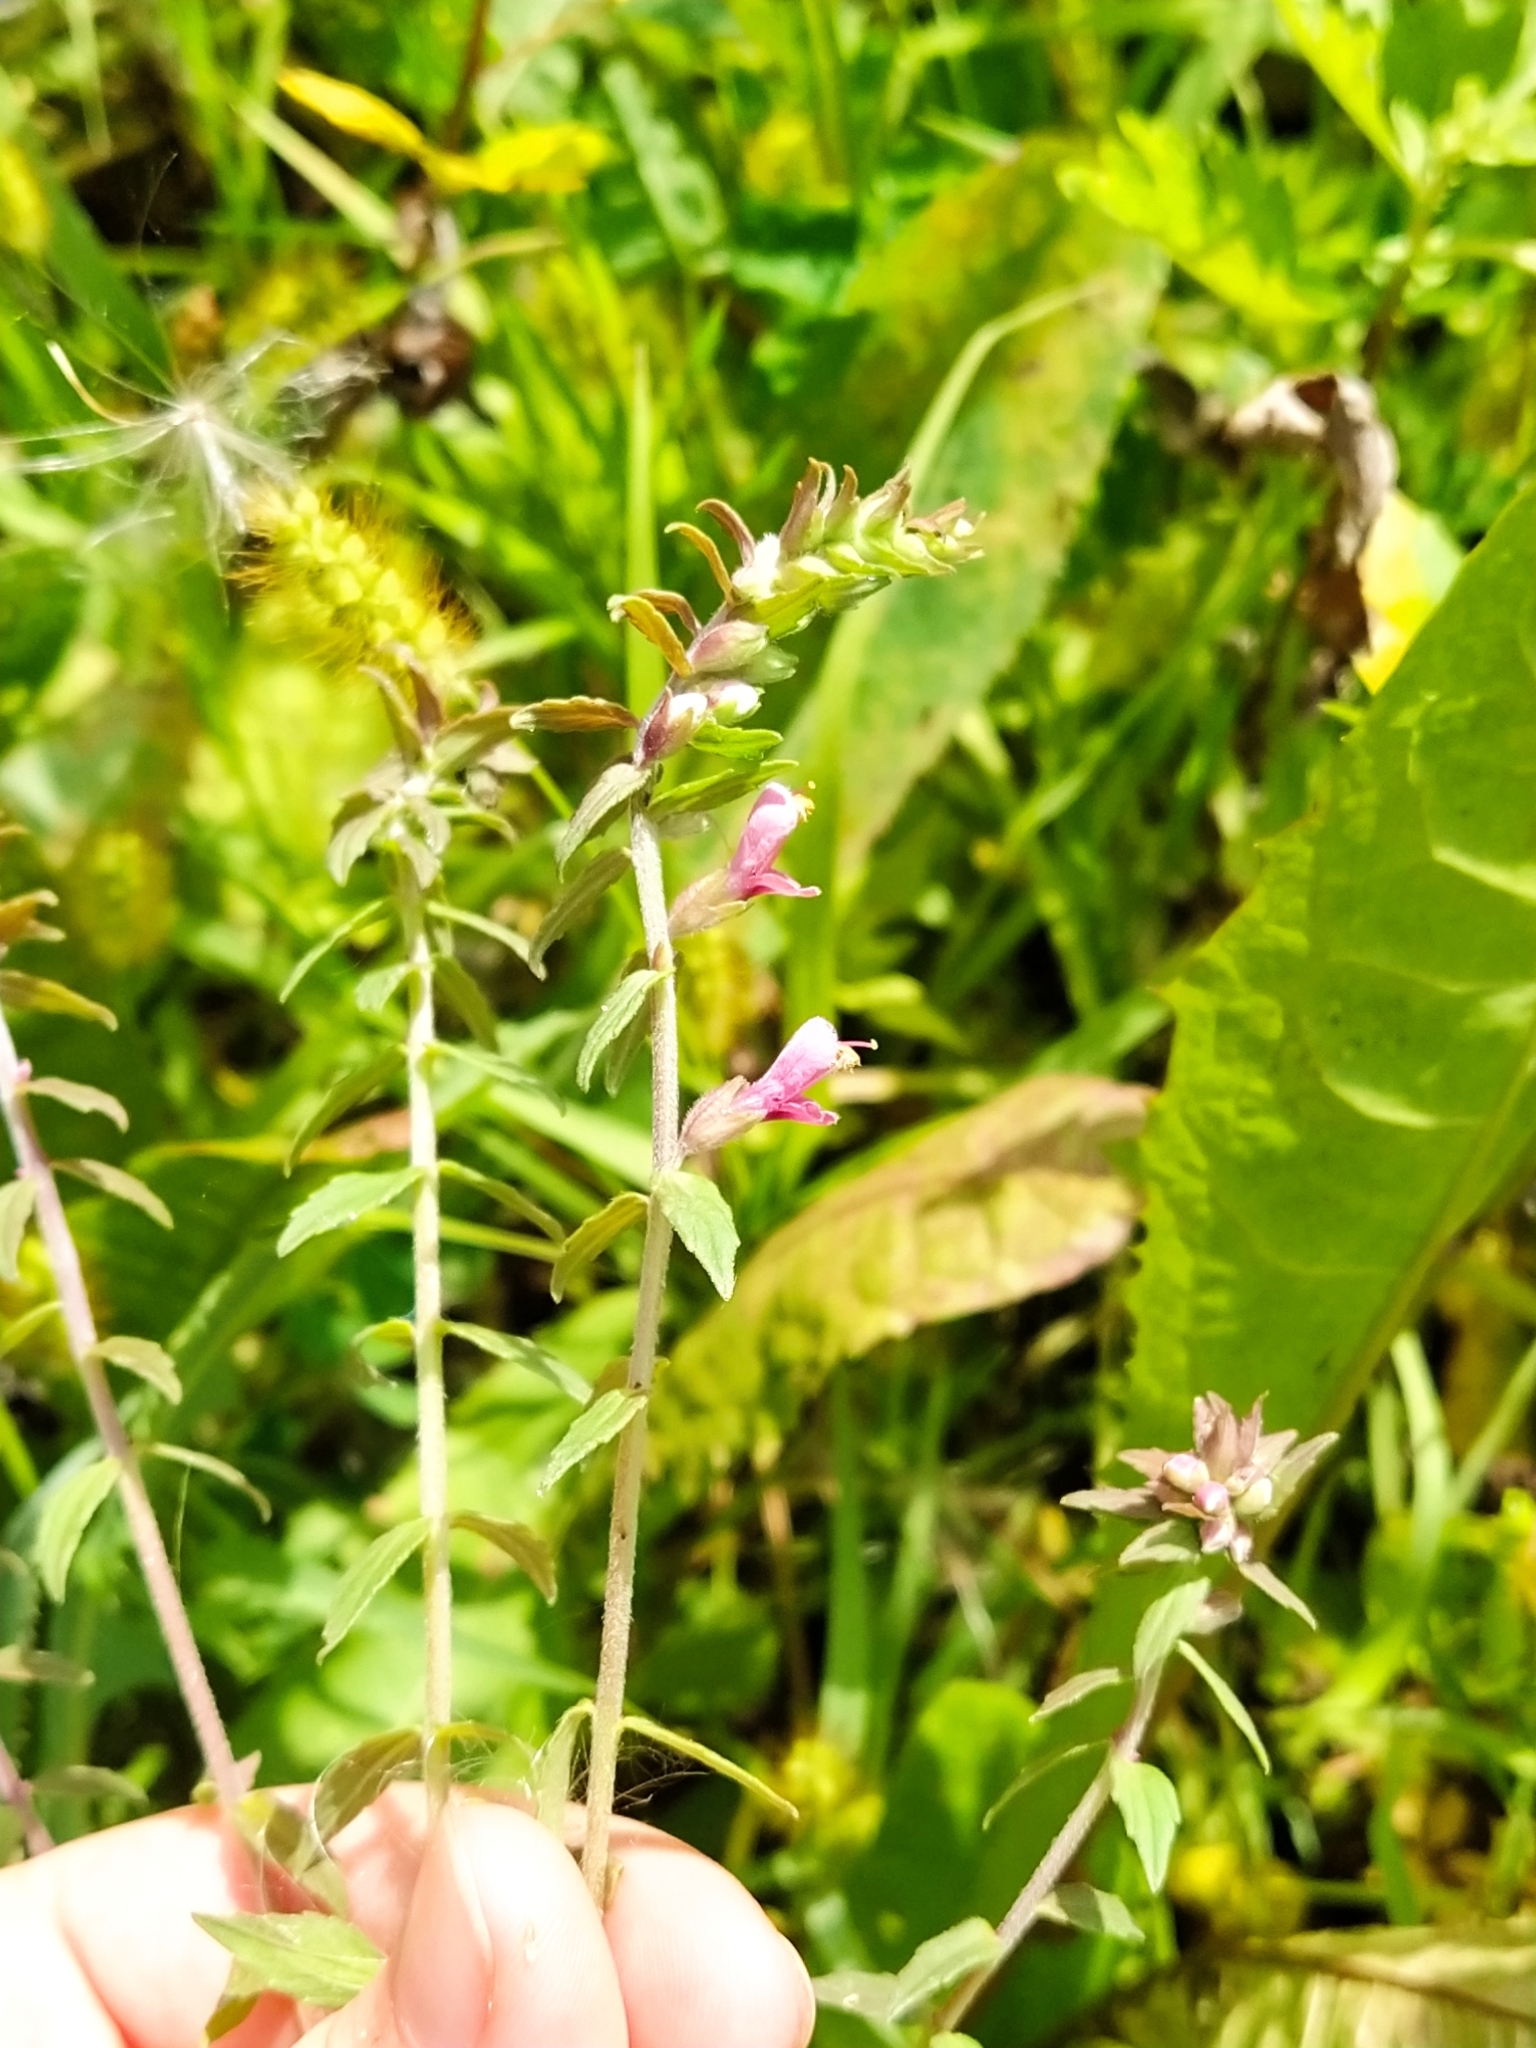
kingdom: Plantae
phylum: Tracheophyta
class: Magnoliopsida
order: Lamiales
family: Orobanchaceae
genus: Odontites
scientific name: Odontites vulgaris
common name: Broomrape
